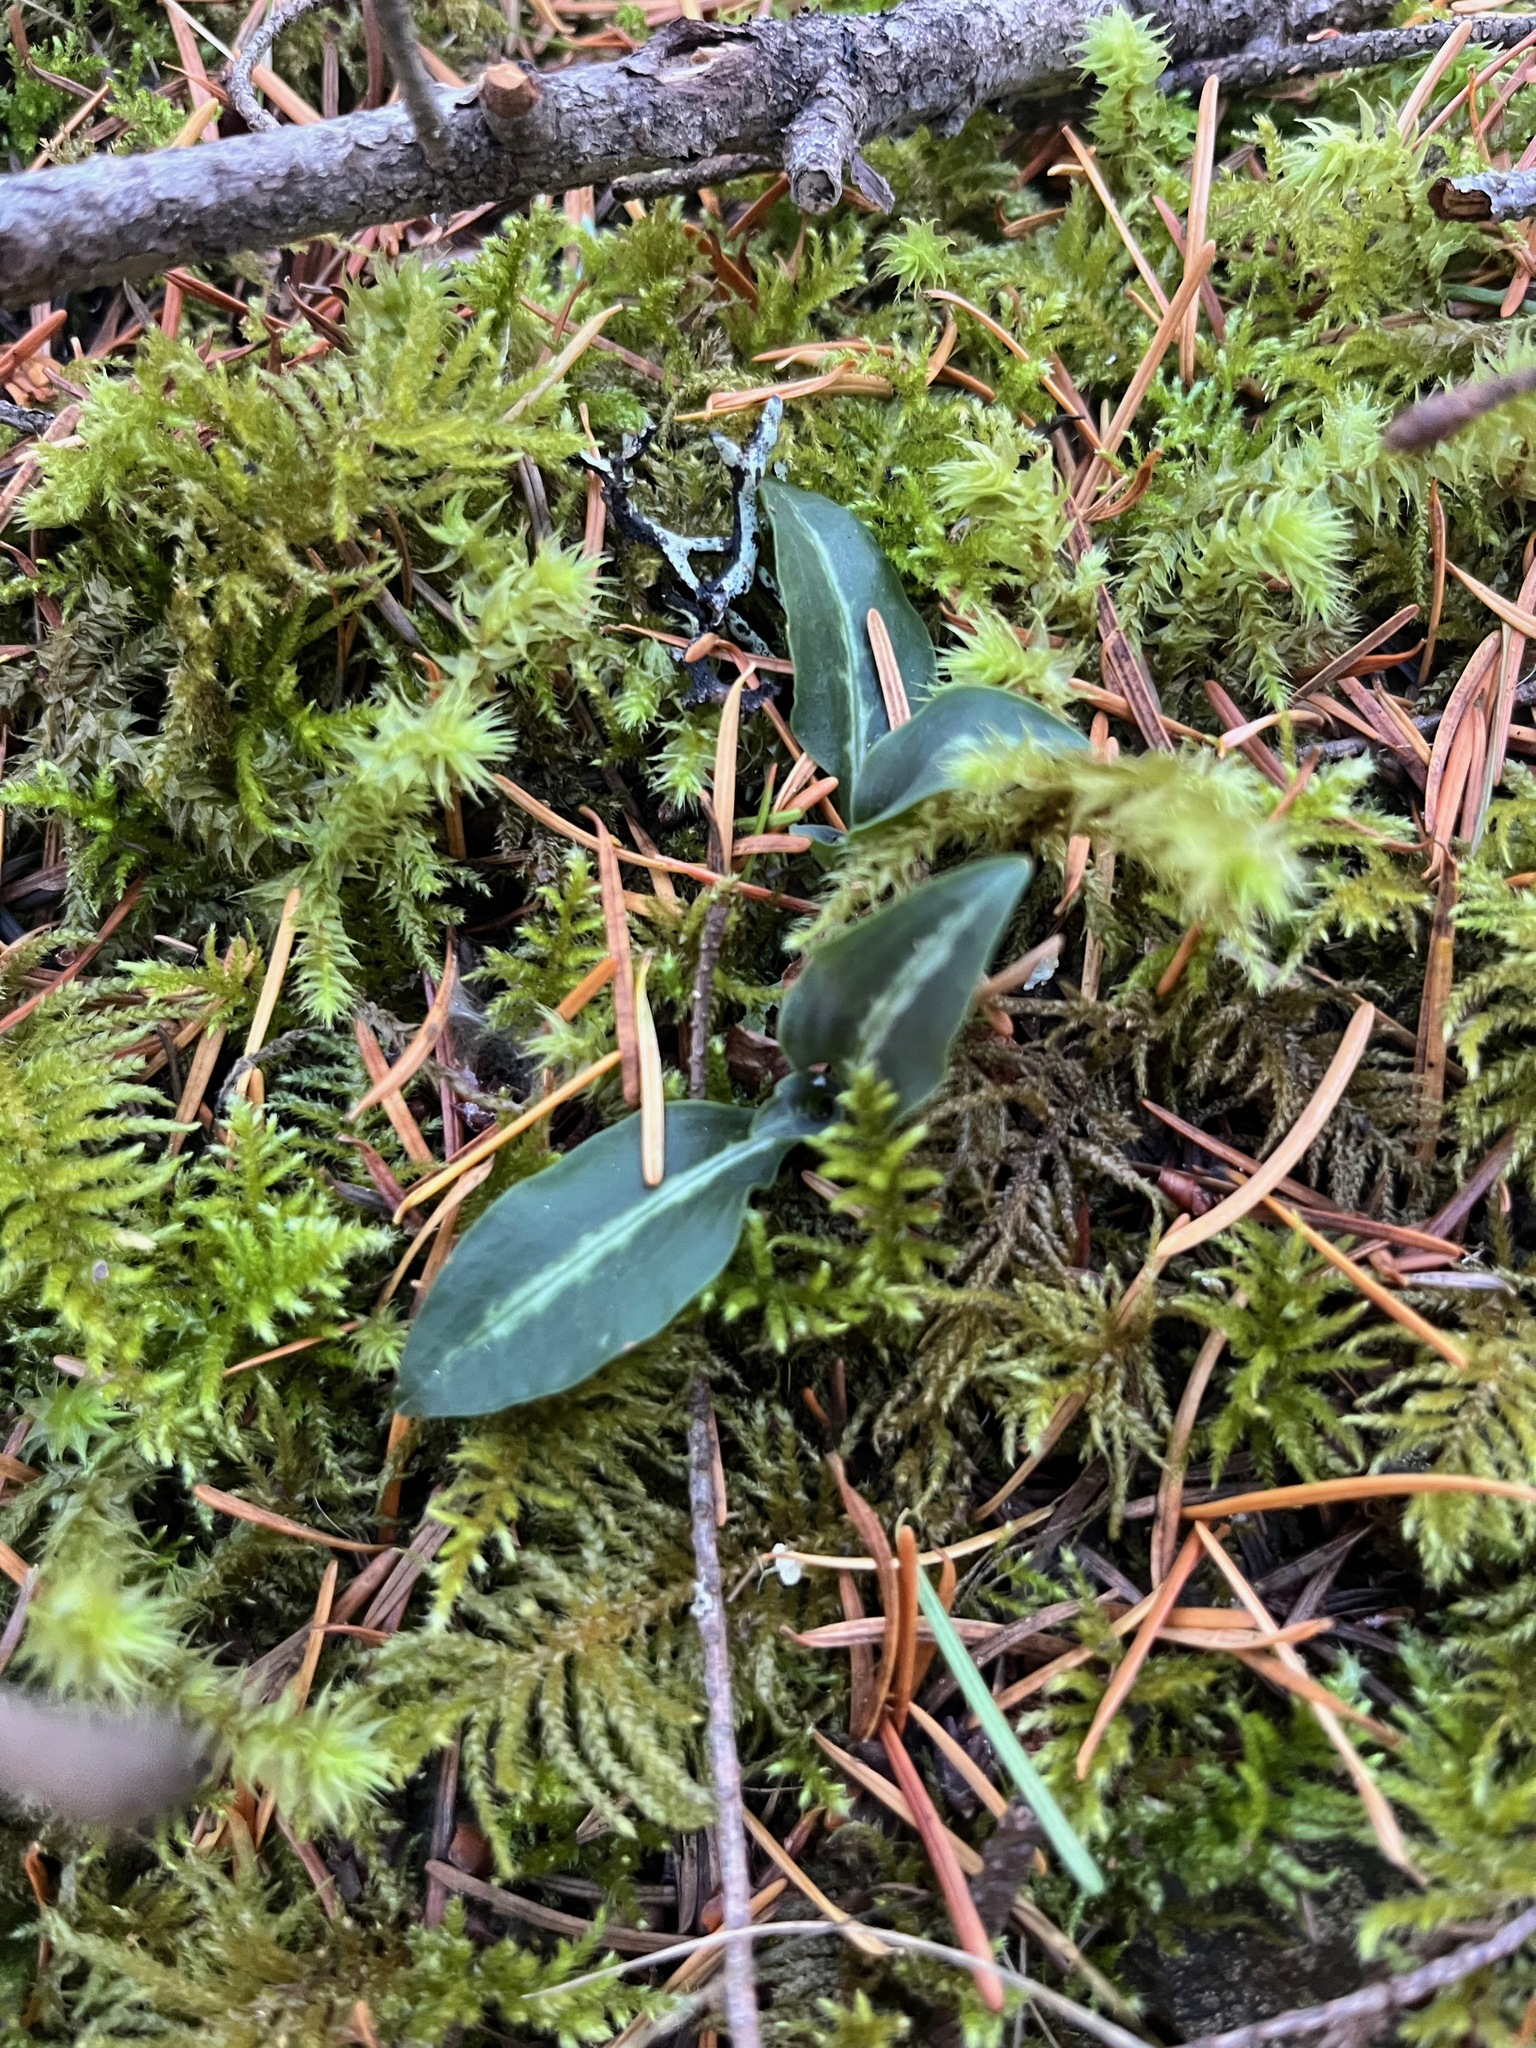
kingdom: Plantae
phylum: Tracheophyta
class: Liliopsida
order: Asparagales
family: Orchidaceae
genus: Goodyera
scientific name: Goodyera oblongifolia
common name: Giant rattlesnake-plantain
